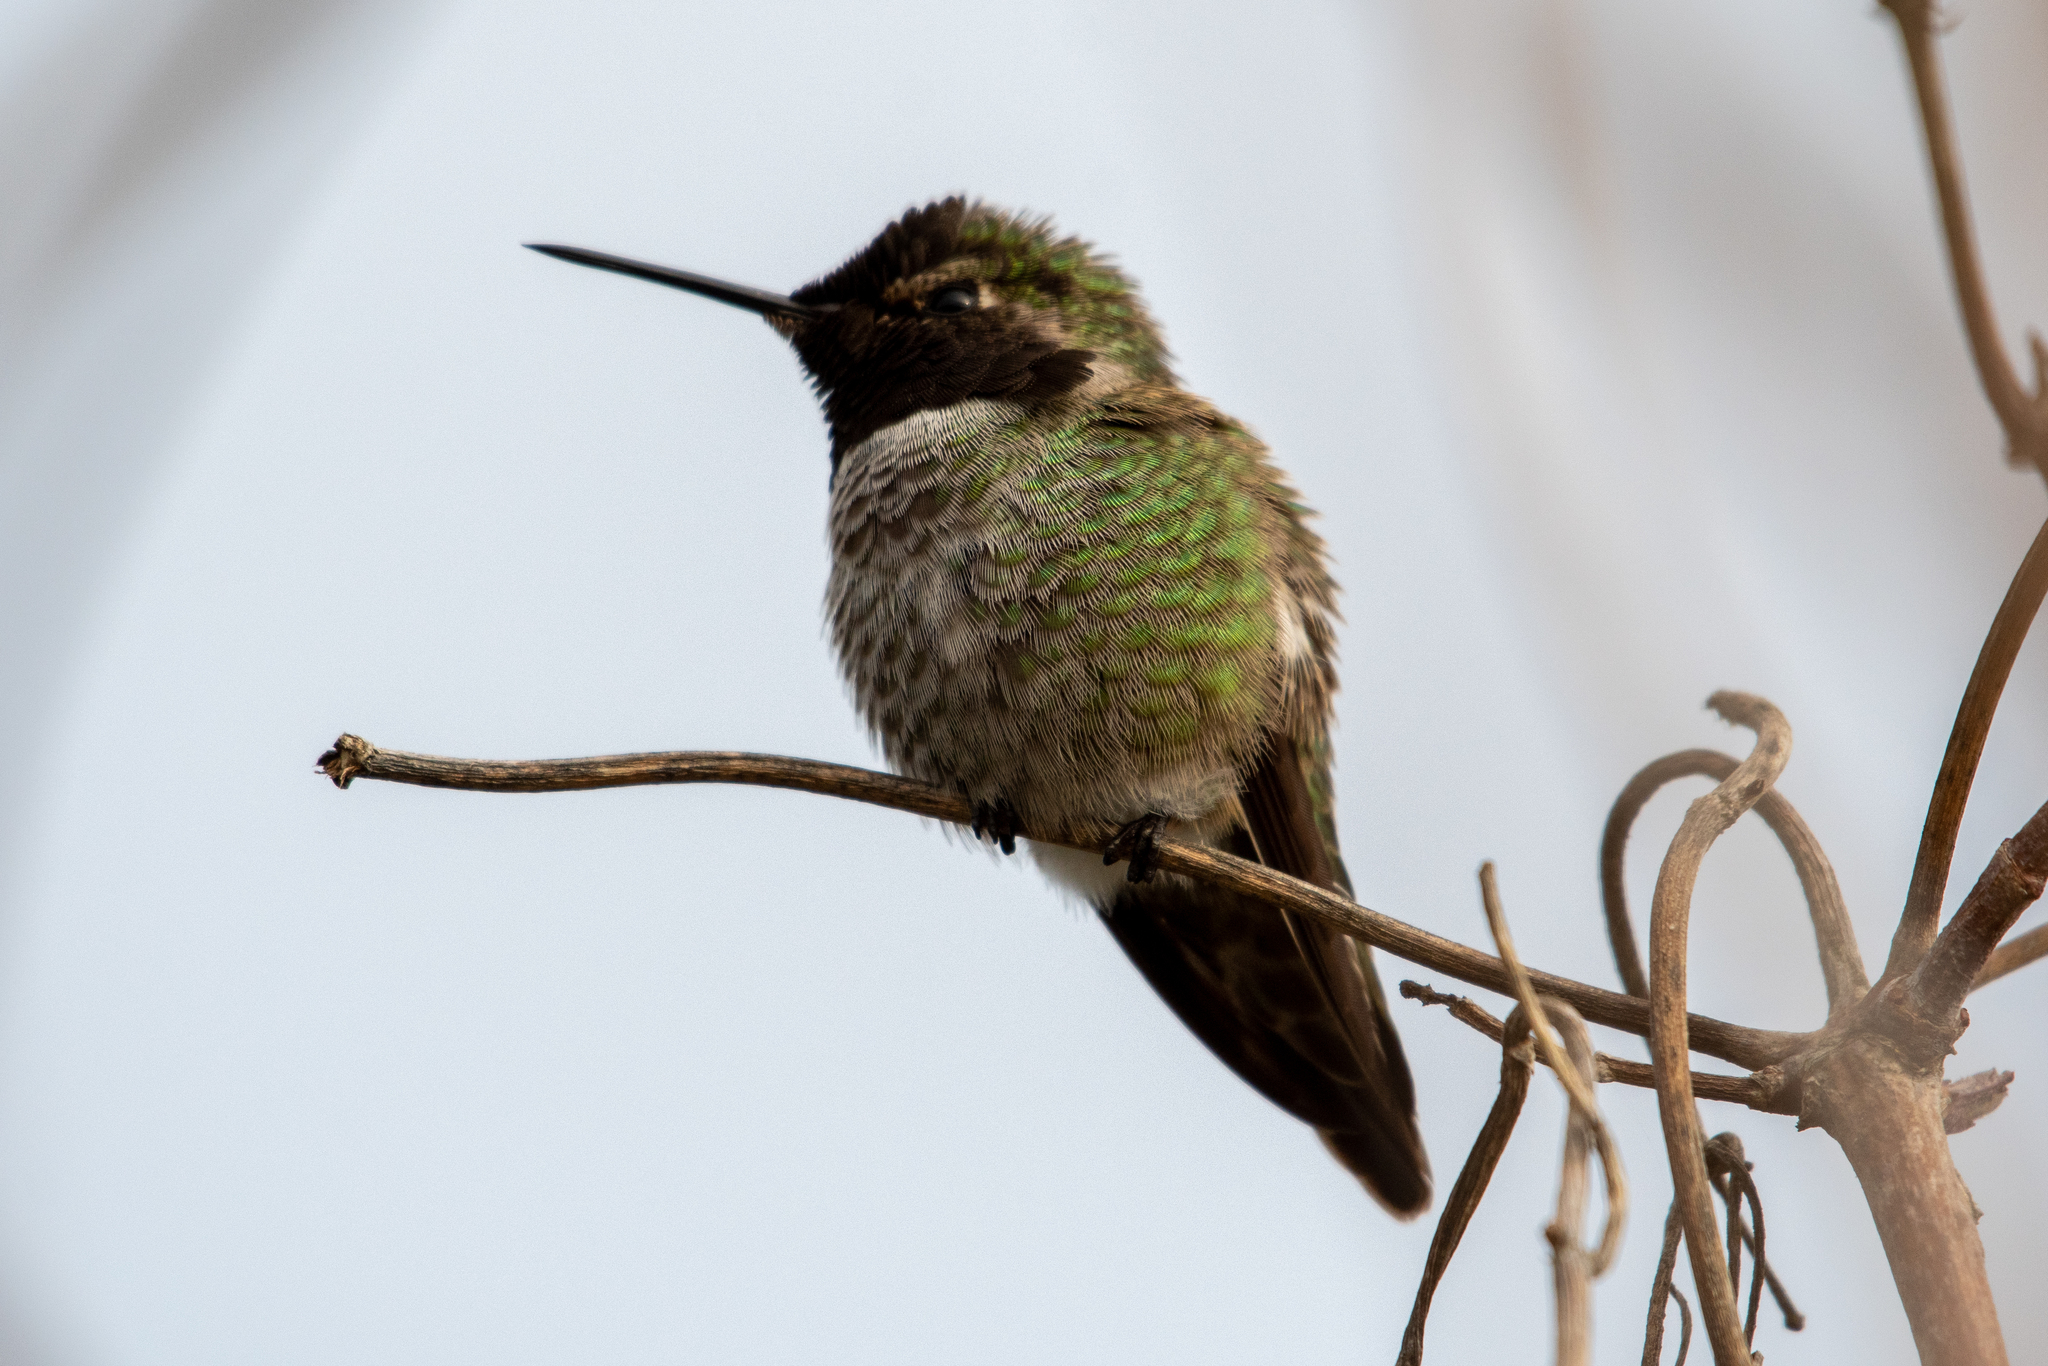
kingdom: Animalia
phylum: Chordata
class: Aves
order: Apodiformes
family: Trochilidae
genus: Calypte
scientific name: Calypte anna
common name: Anna's hummingbird
